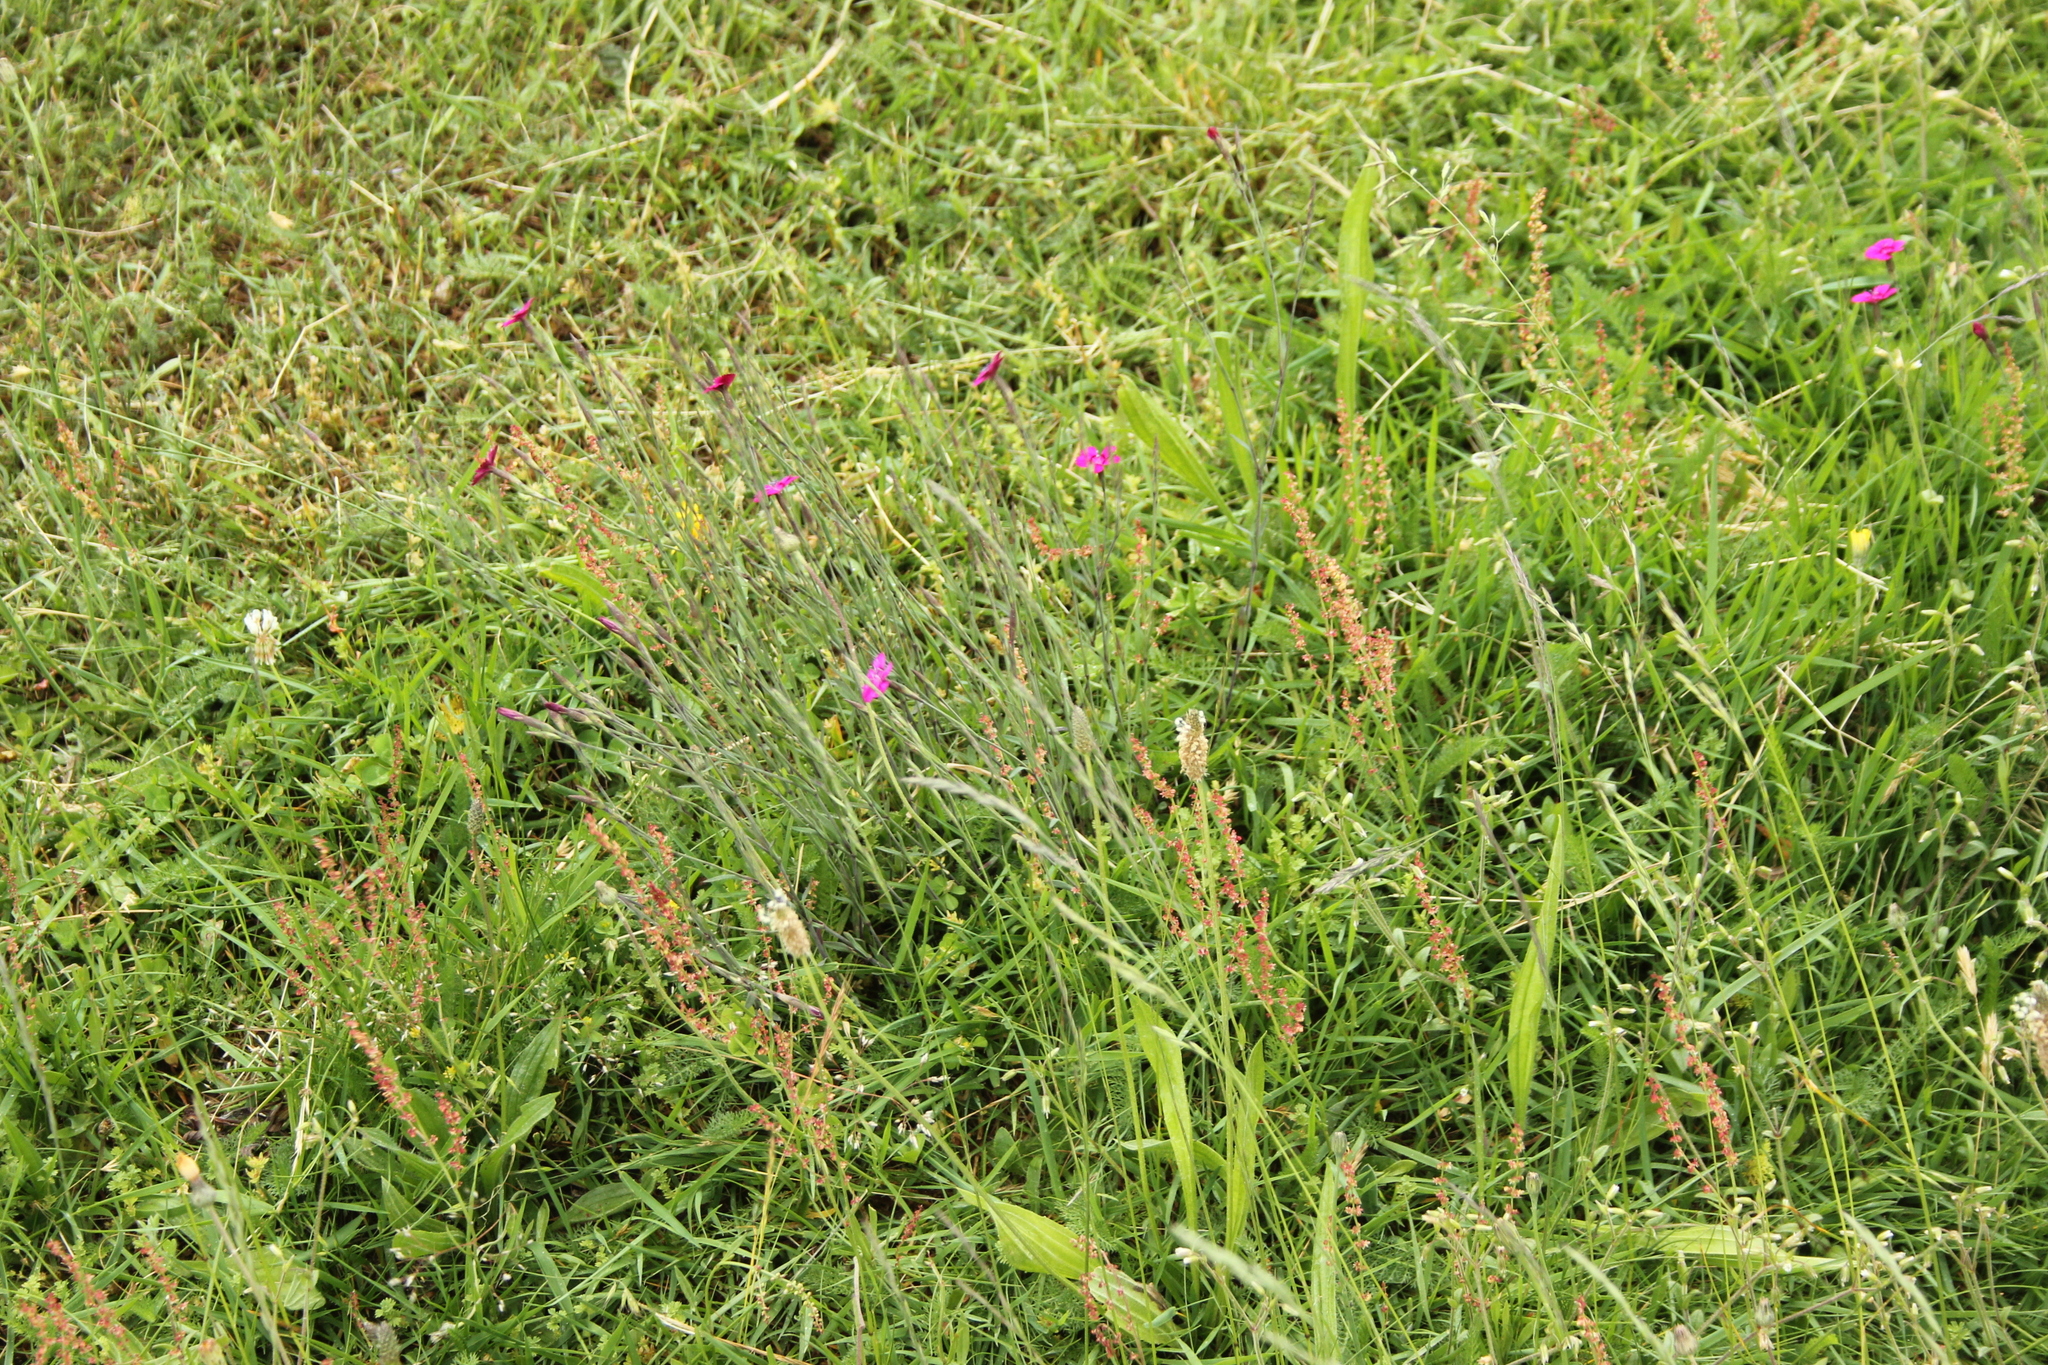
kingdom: Plantae
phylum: Tracheophyta
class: Magnoliopsida
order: Caryophyllales
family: Caryophyllaceae
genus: Dianthus
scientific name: Dianthus deltoides
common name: Maiden pink
